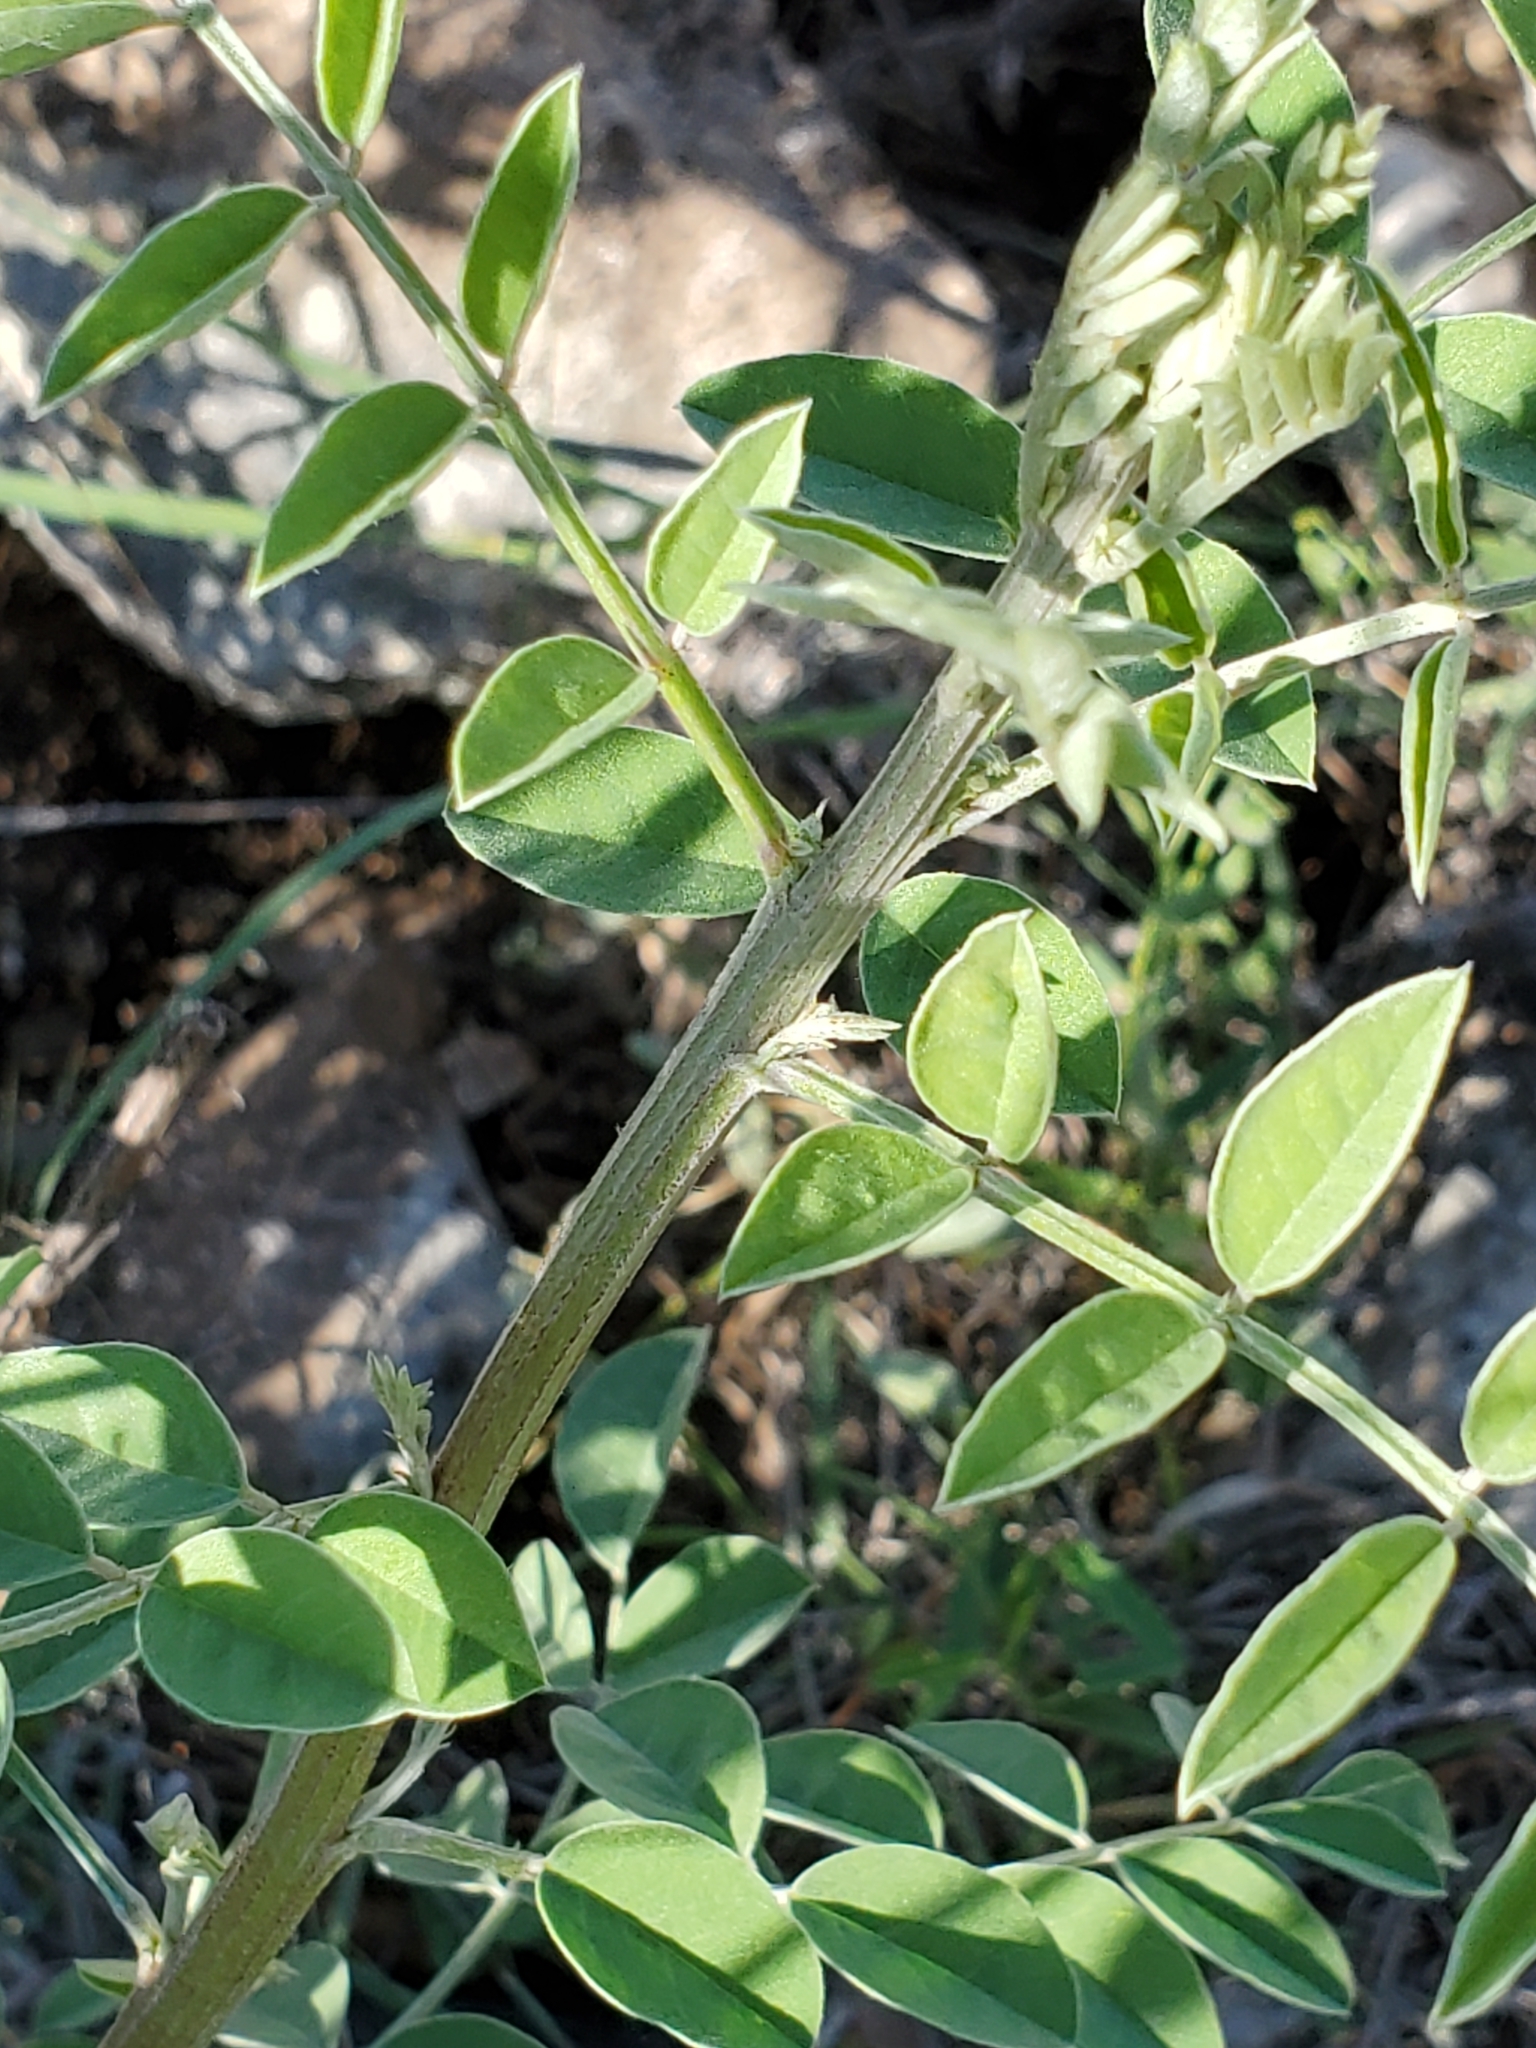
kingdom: Plantae
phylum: Tracheophyta
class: Magnoliopsida
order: Fabales
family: Fabaceae
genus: Indigofera
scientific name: Indigofera lindheimeriana
